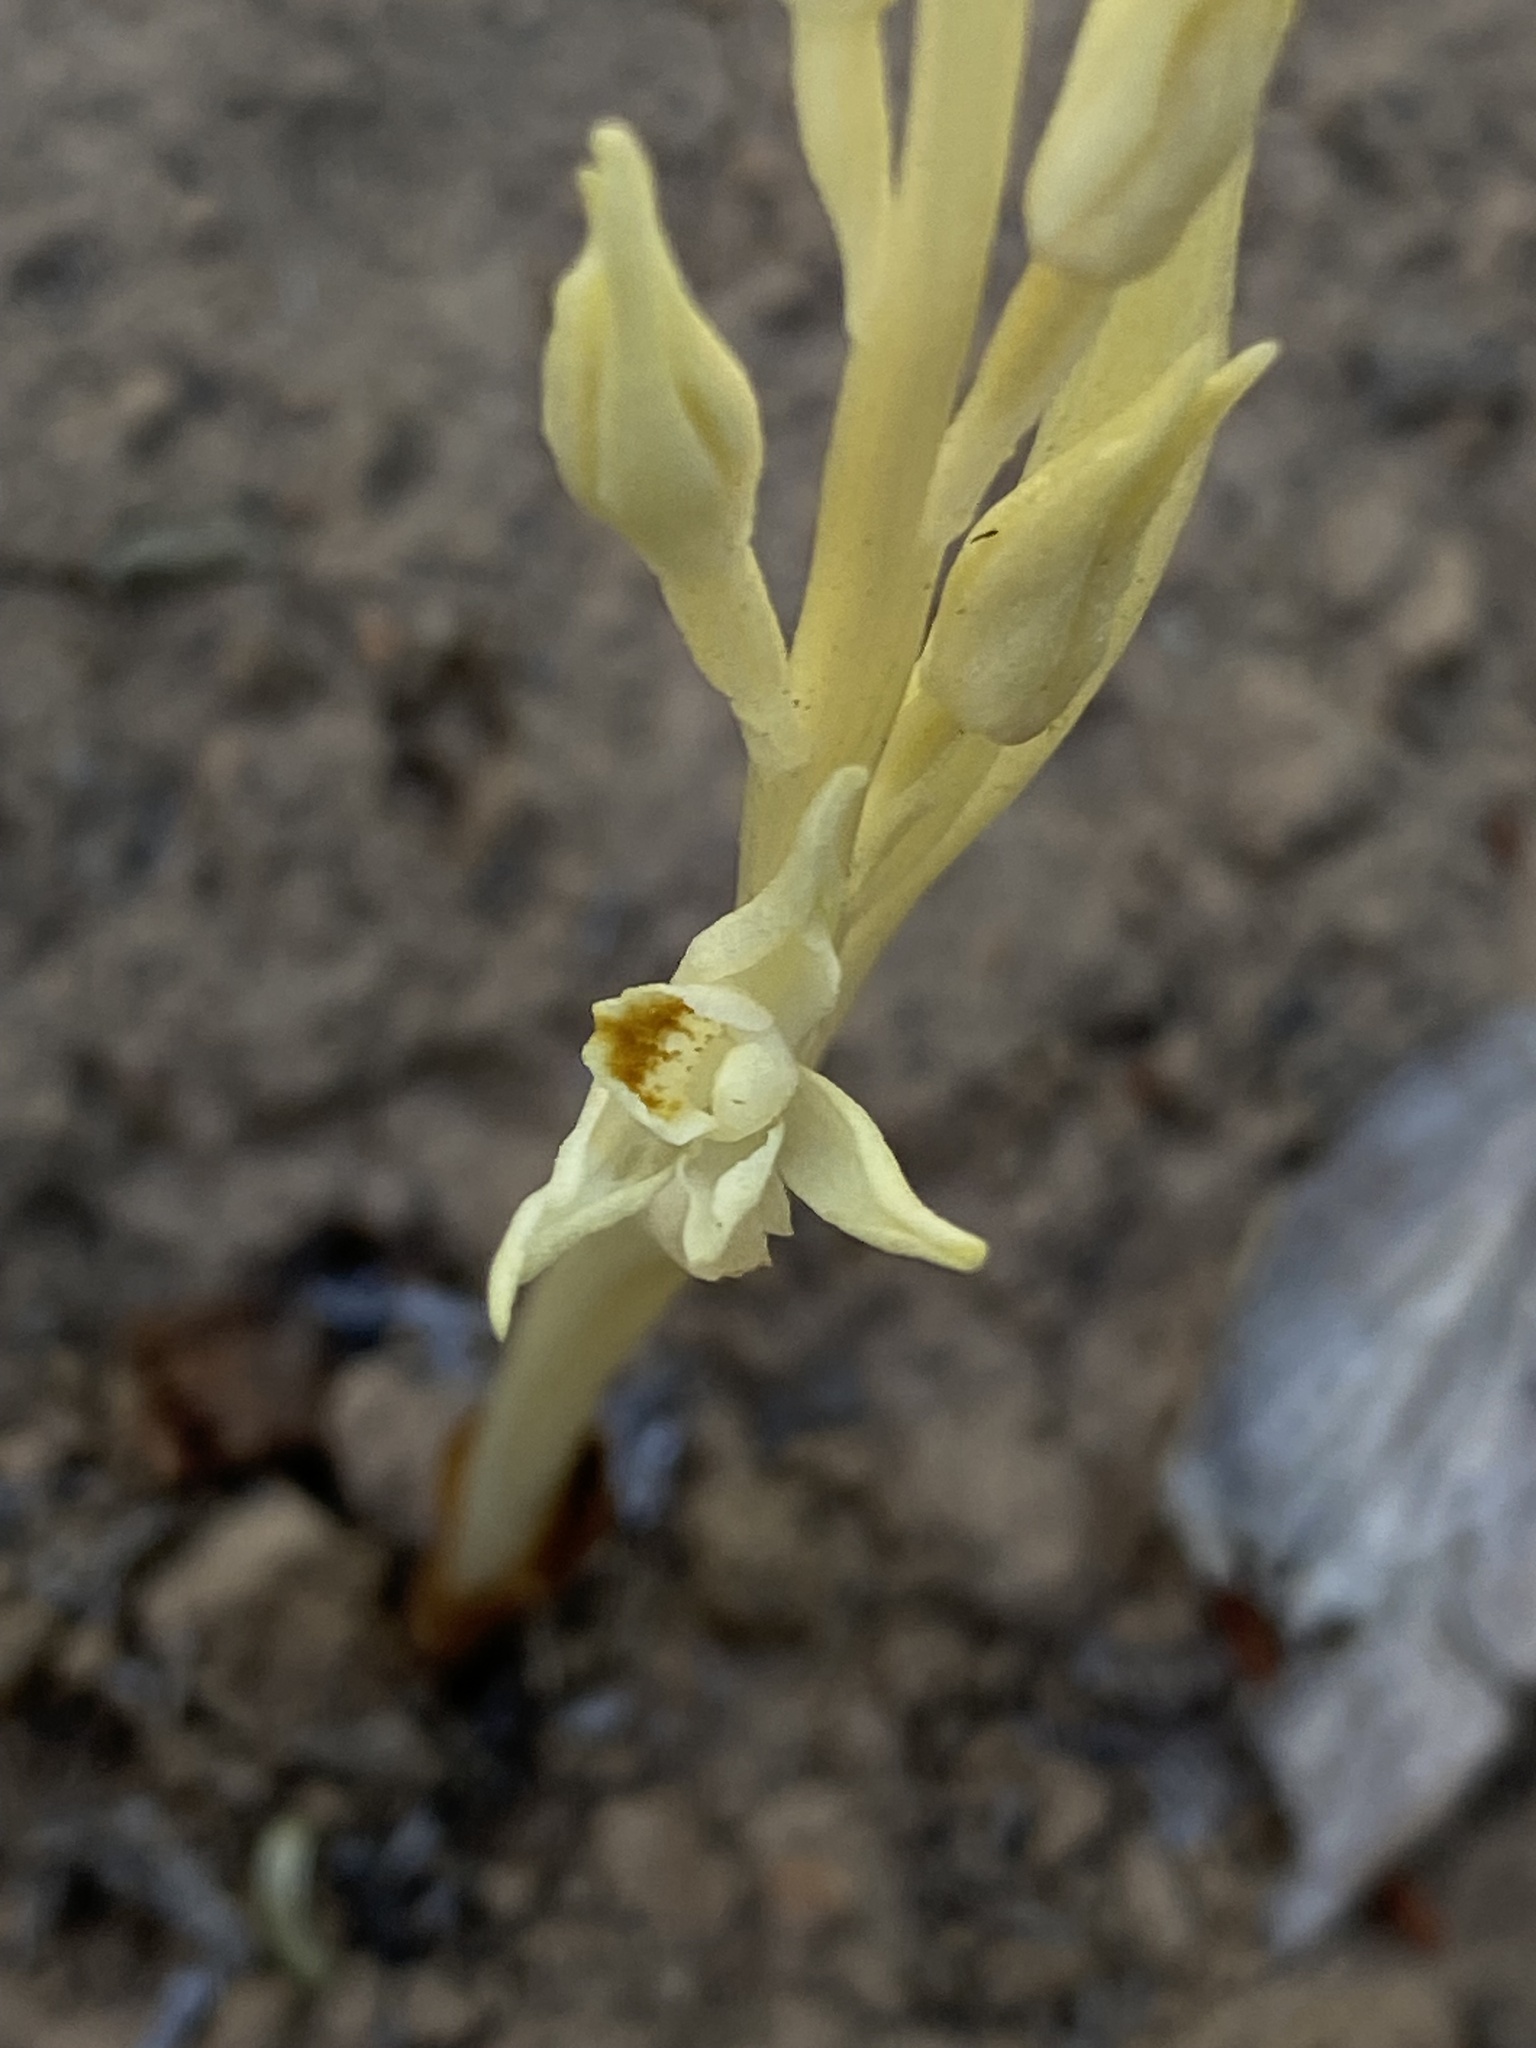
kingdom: Plantae
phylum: Tracheophyta
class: Liliopsida
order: Asparagales
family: Orchidaceae
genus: Cephalanthera
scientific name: Cephalanthera austiniae
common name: Phantom orchid
